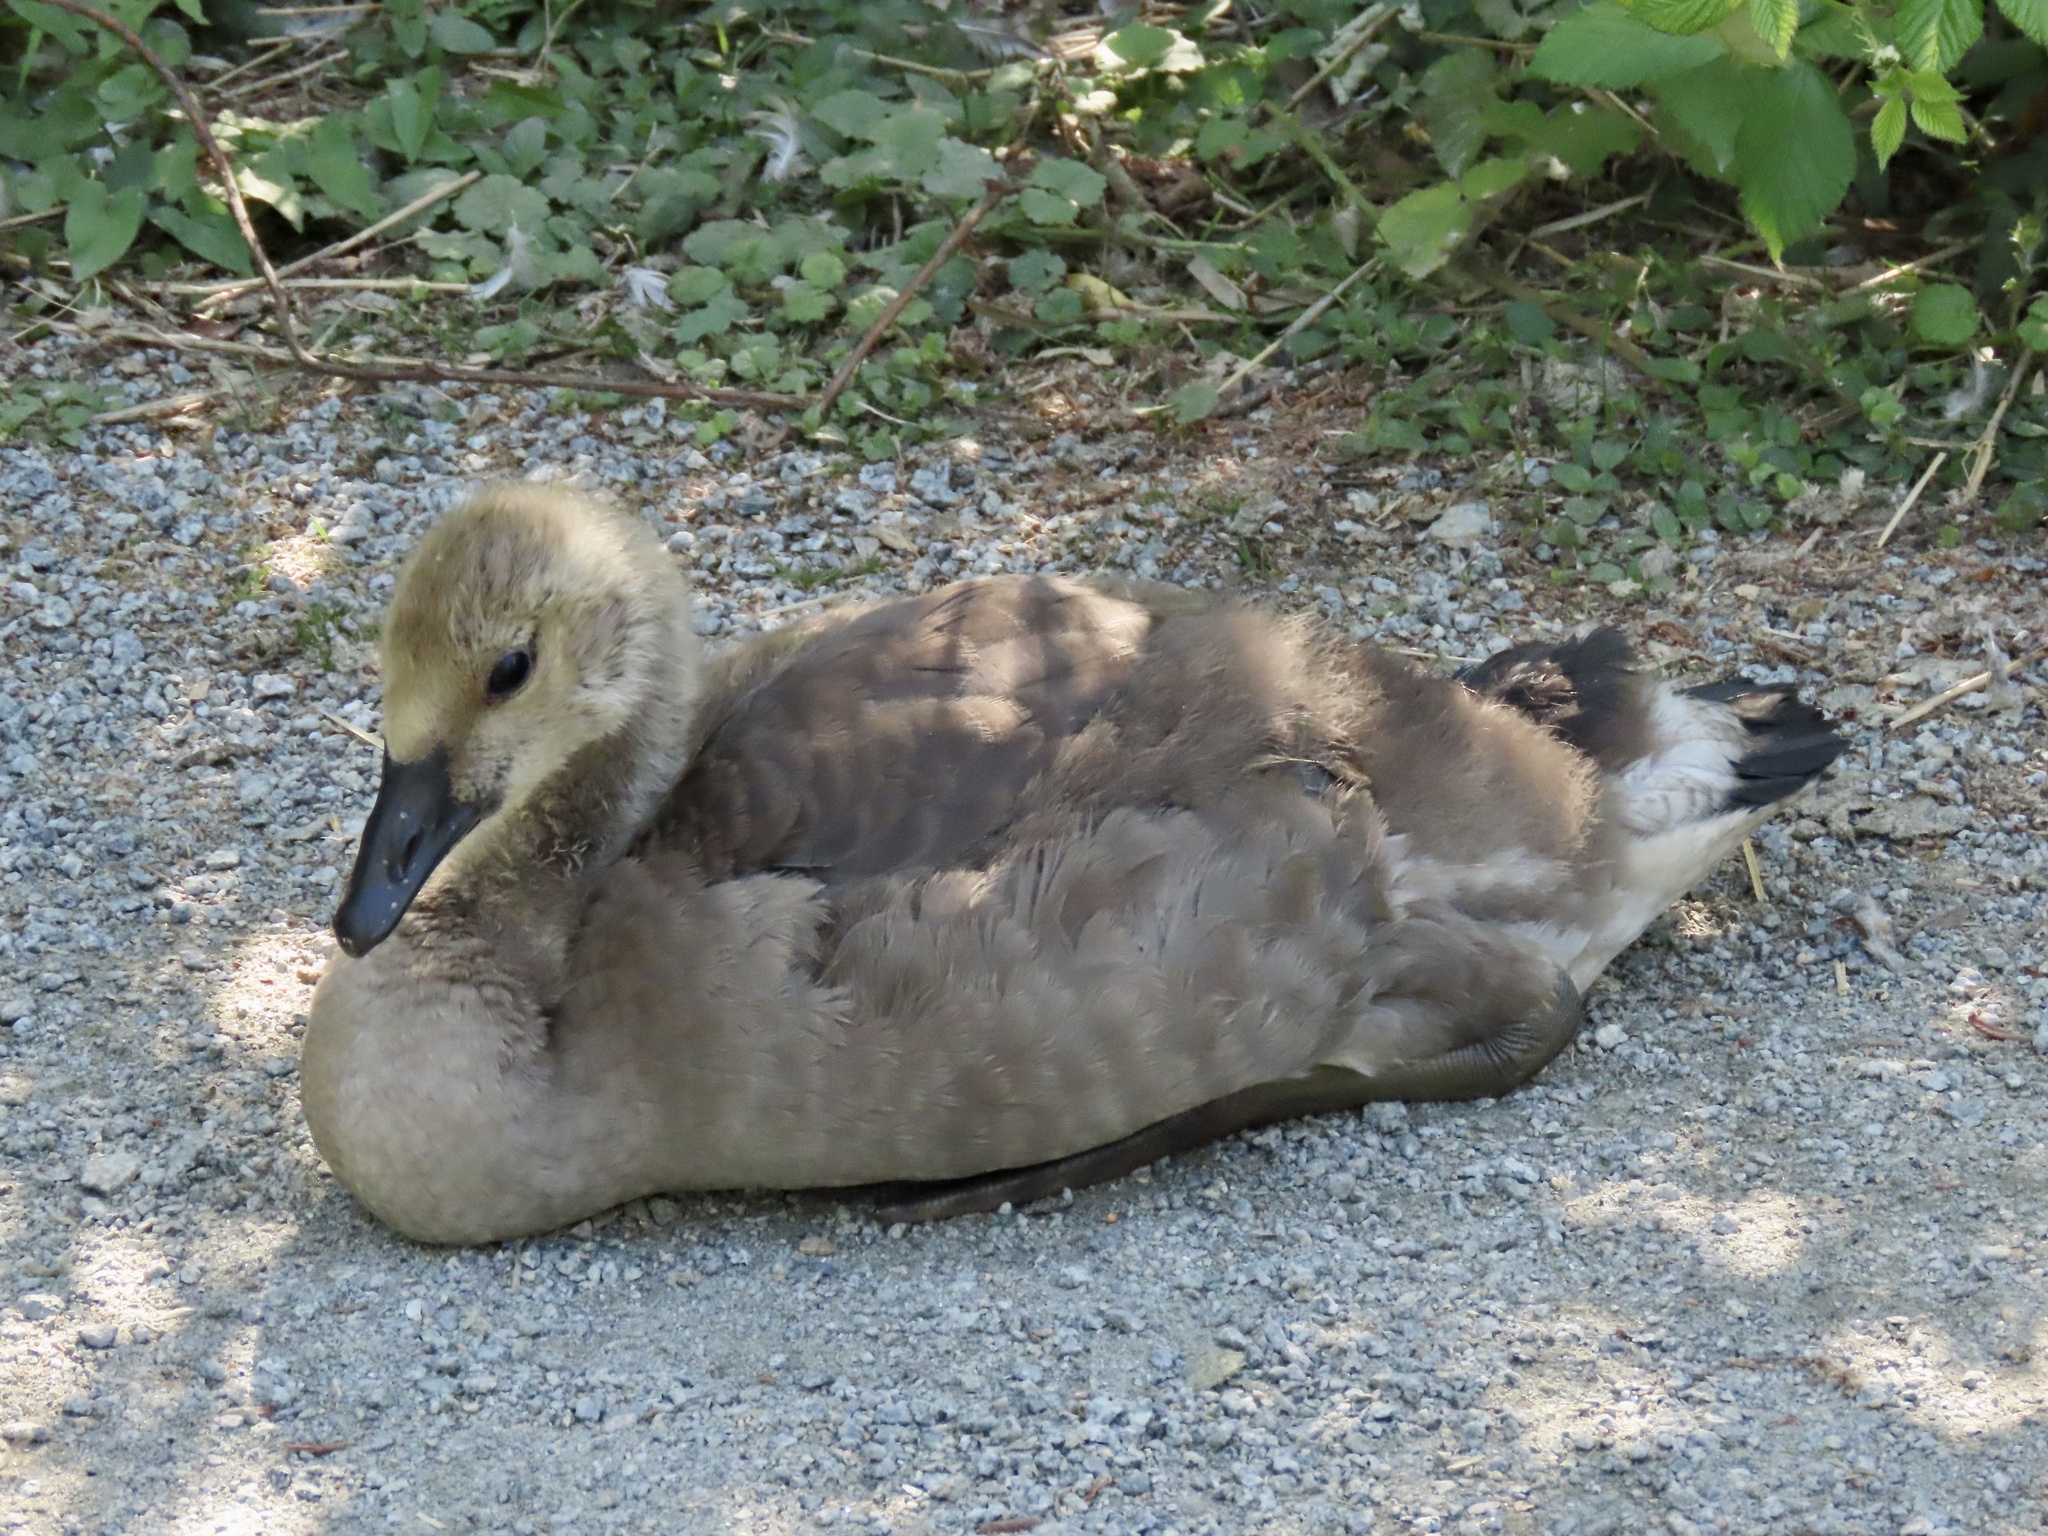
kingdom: Animalia
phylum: Chordata
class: Aves
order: Anseriformes
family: Anatidae
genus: Branta
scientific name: Branta canadensis
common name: Canada goose
